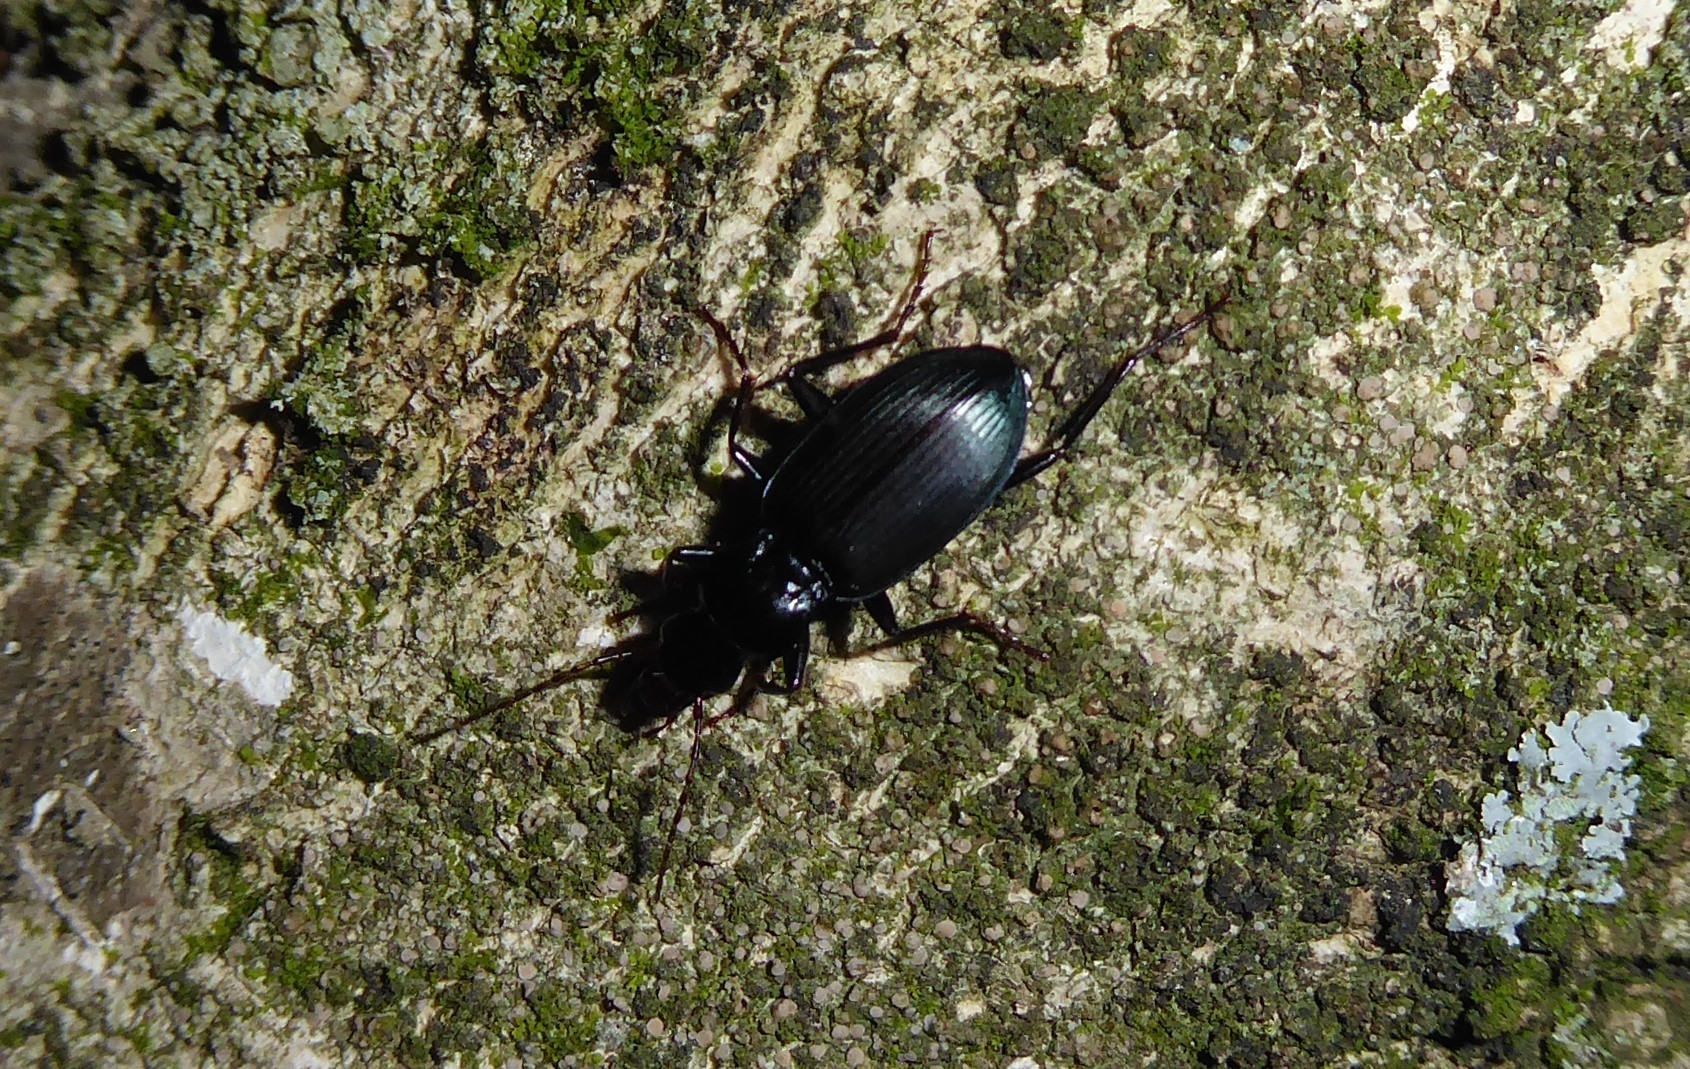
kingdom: Animalia
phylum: Arthropoda
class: Insecta
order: Coleoptera
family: Carabidae
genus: Laemostenus
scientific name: Laemostenus complanatus
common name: Cosmopolitan ground beetle
